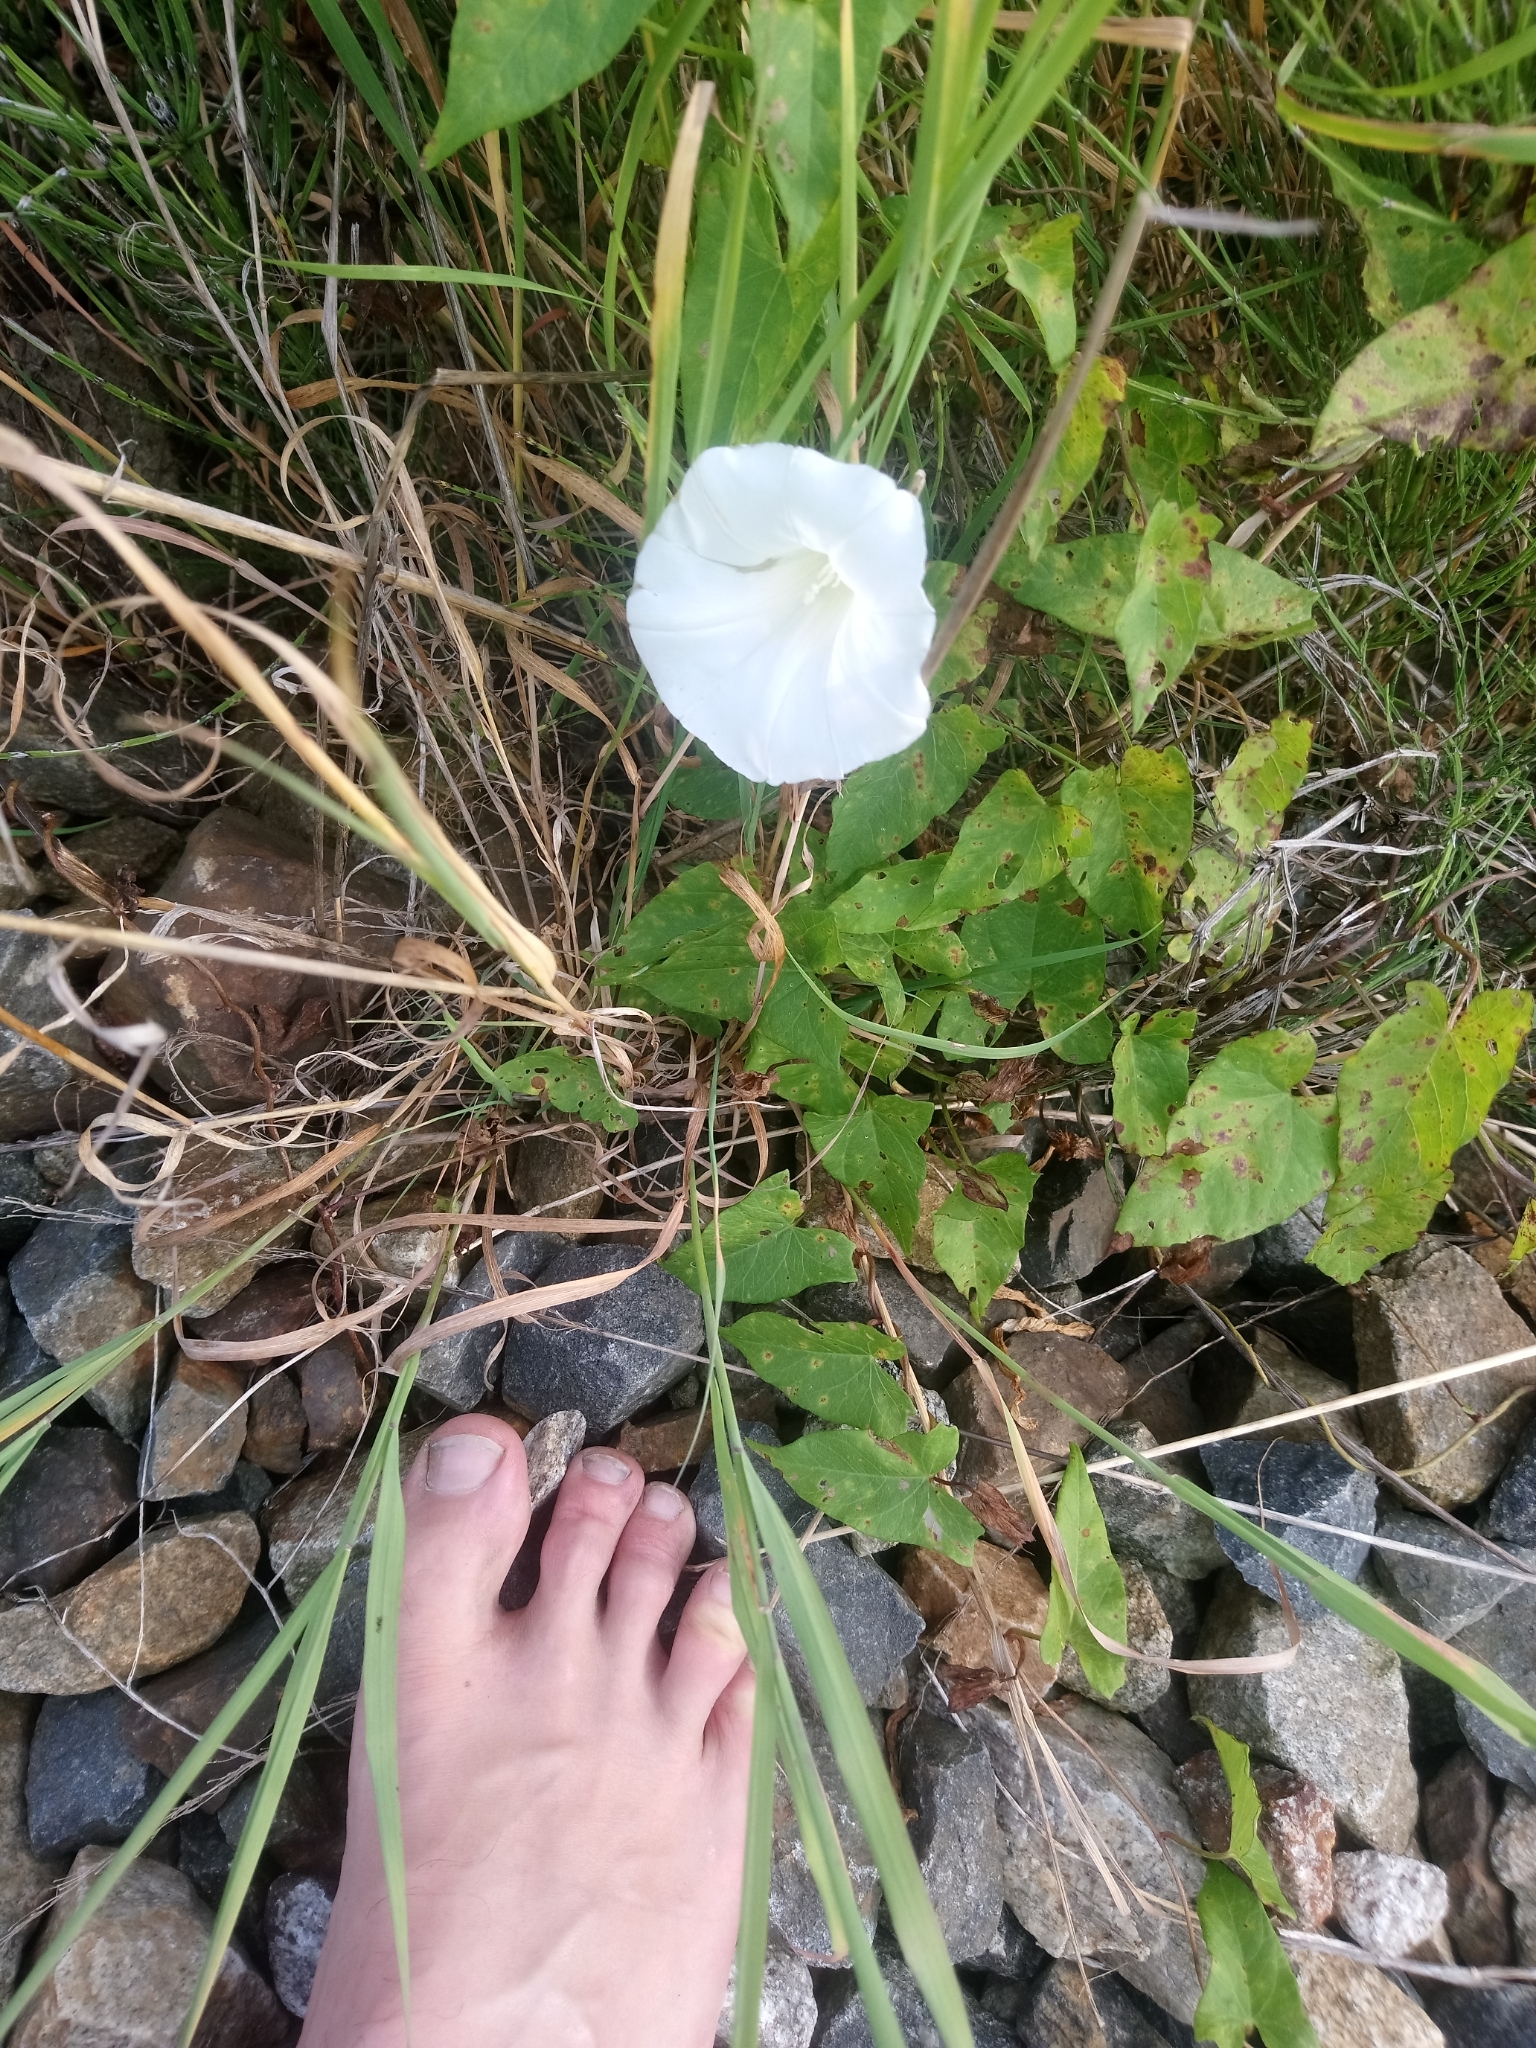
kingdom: Plantae
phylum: Tracheophyta
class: Magnoliopsida
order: Solanales
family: Convolvulaceae
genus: Calystegia
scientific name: Calystegia sepium
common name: Hedge bindweed
